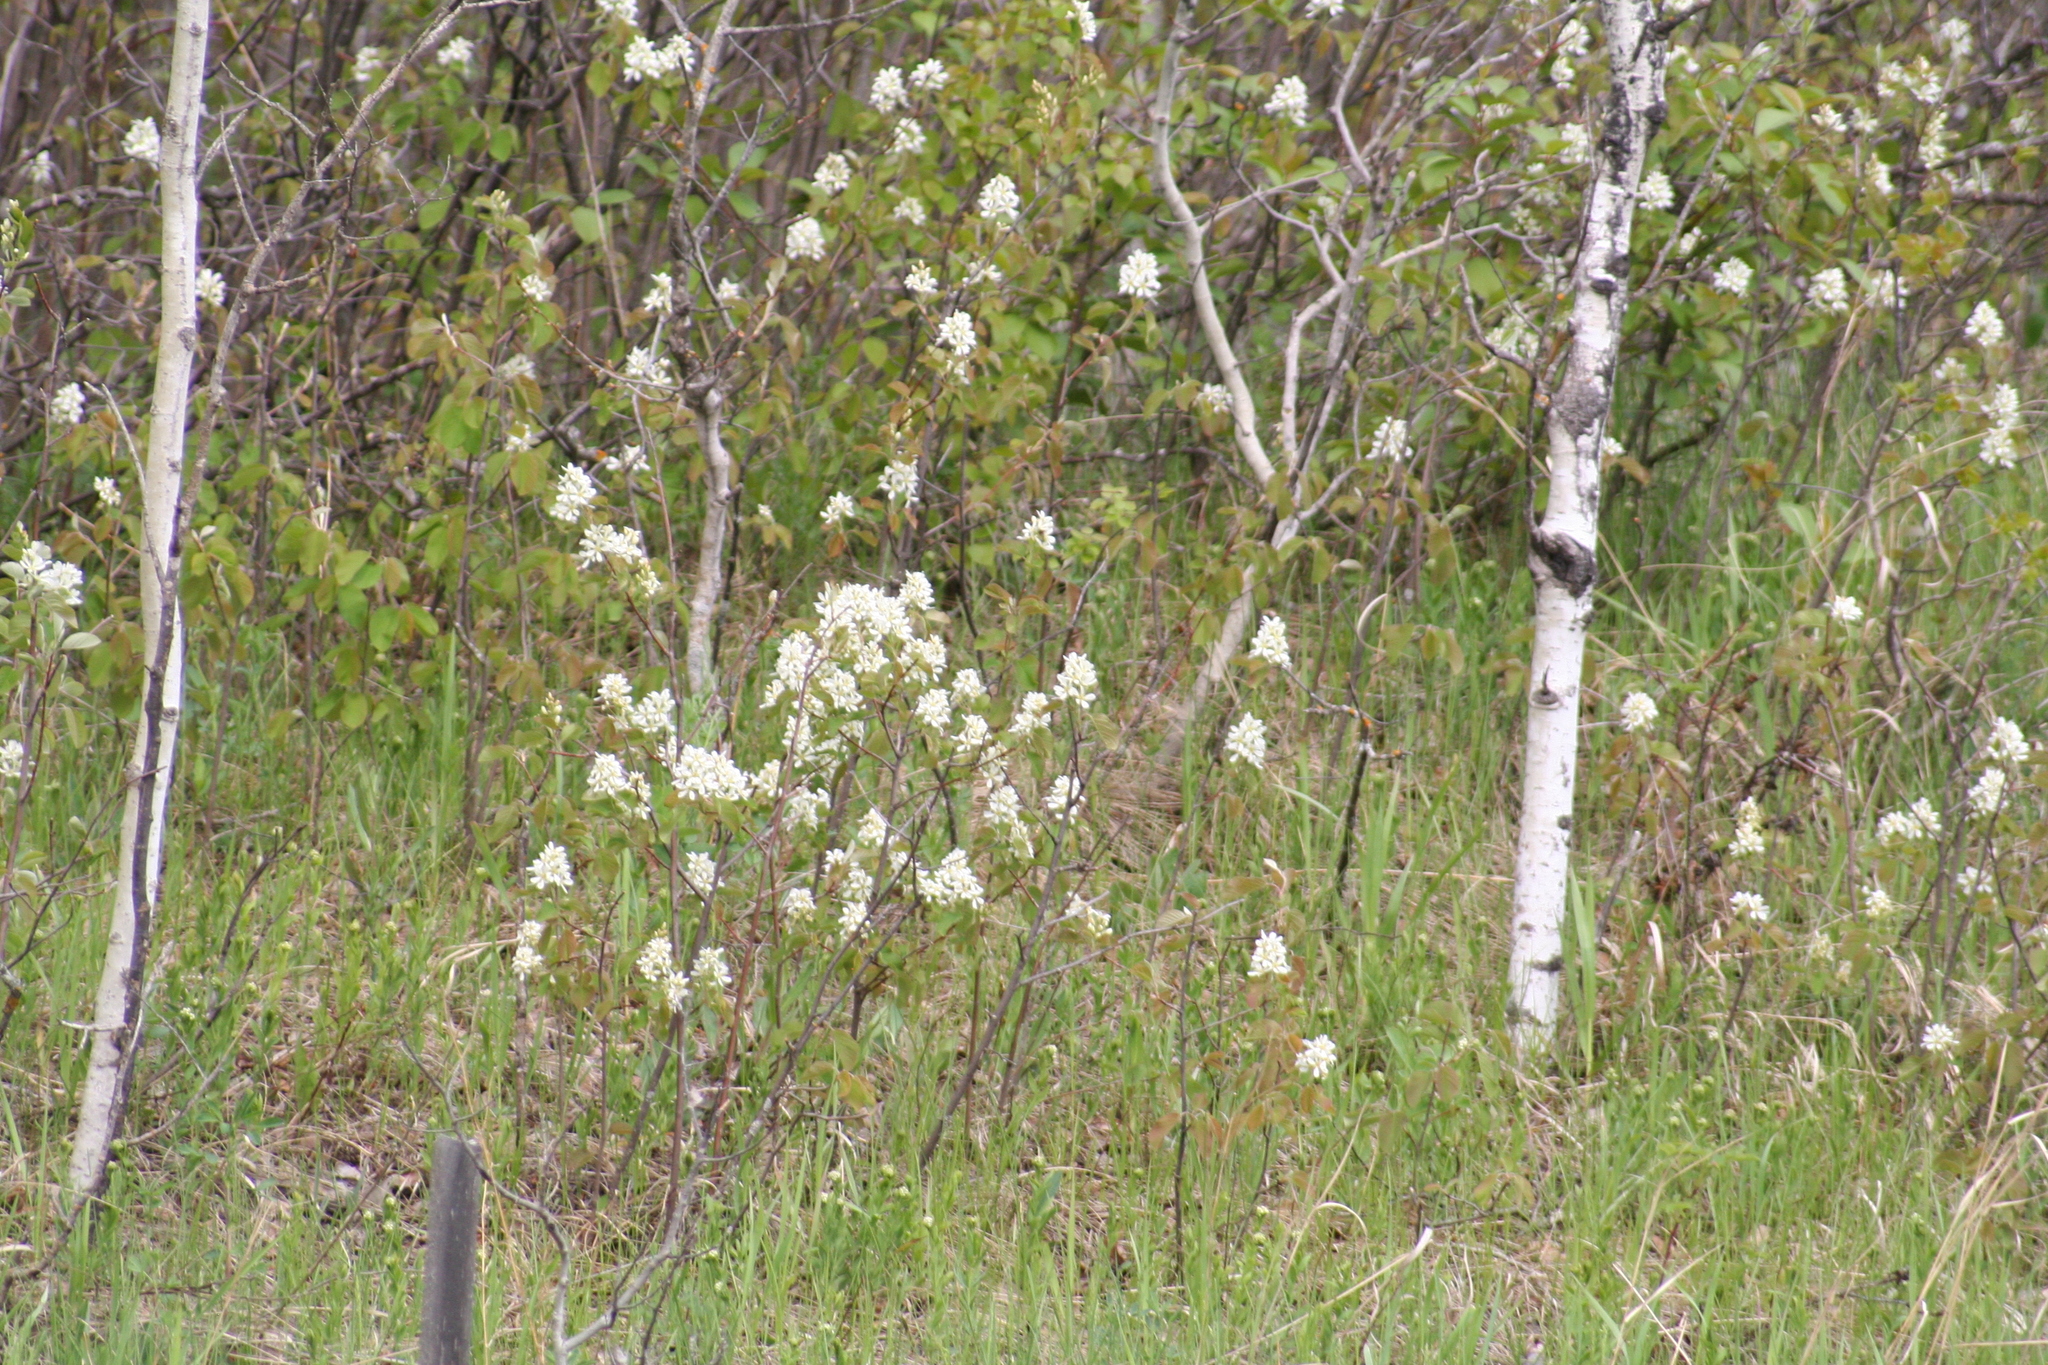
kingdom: Plantae
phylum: Tracheophyta
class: Magnoliopsida
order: Rosales
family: Rosaceae
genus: Amelanchier
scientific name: Amelanchier alnifolia
